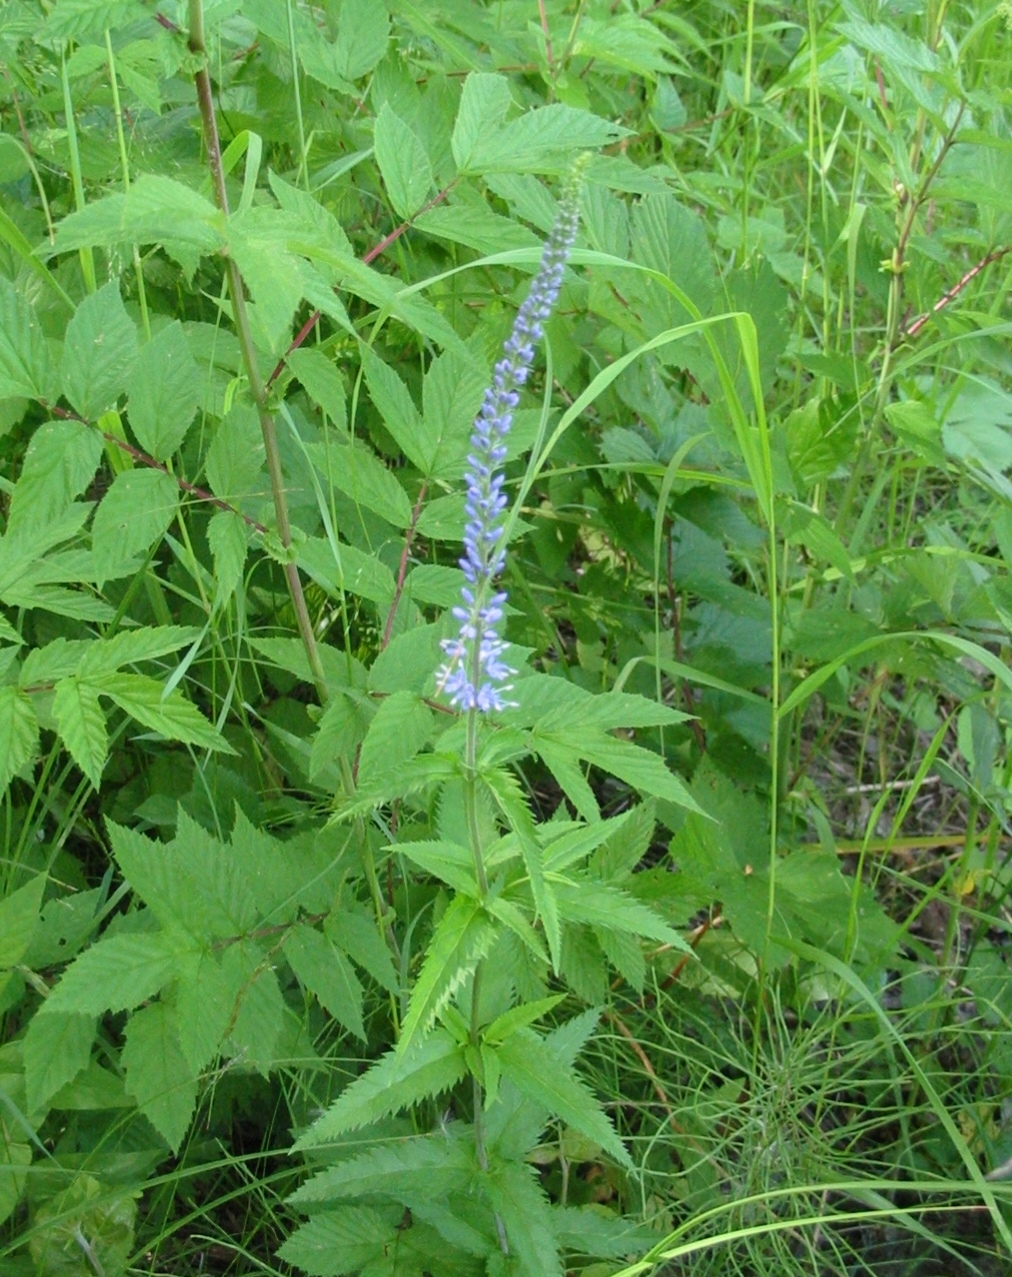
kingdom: Plantae
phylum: Tracheophyta
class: Magnoliopsida
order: Lamiales
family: Plantaginaceae
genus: Veronica
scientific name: Veronica longifolia
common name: Garden speedwell
